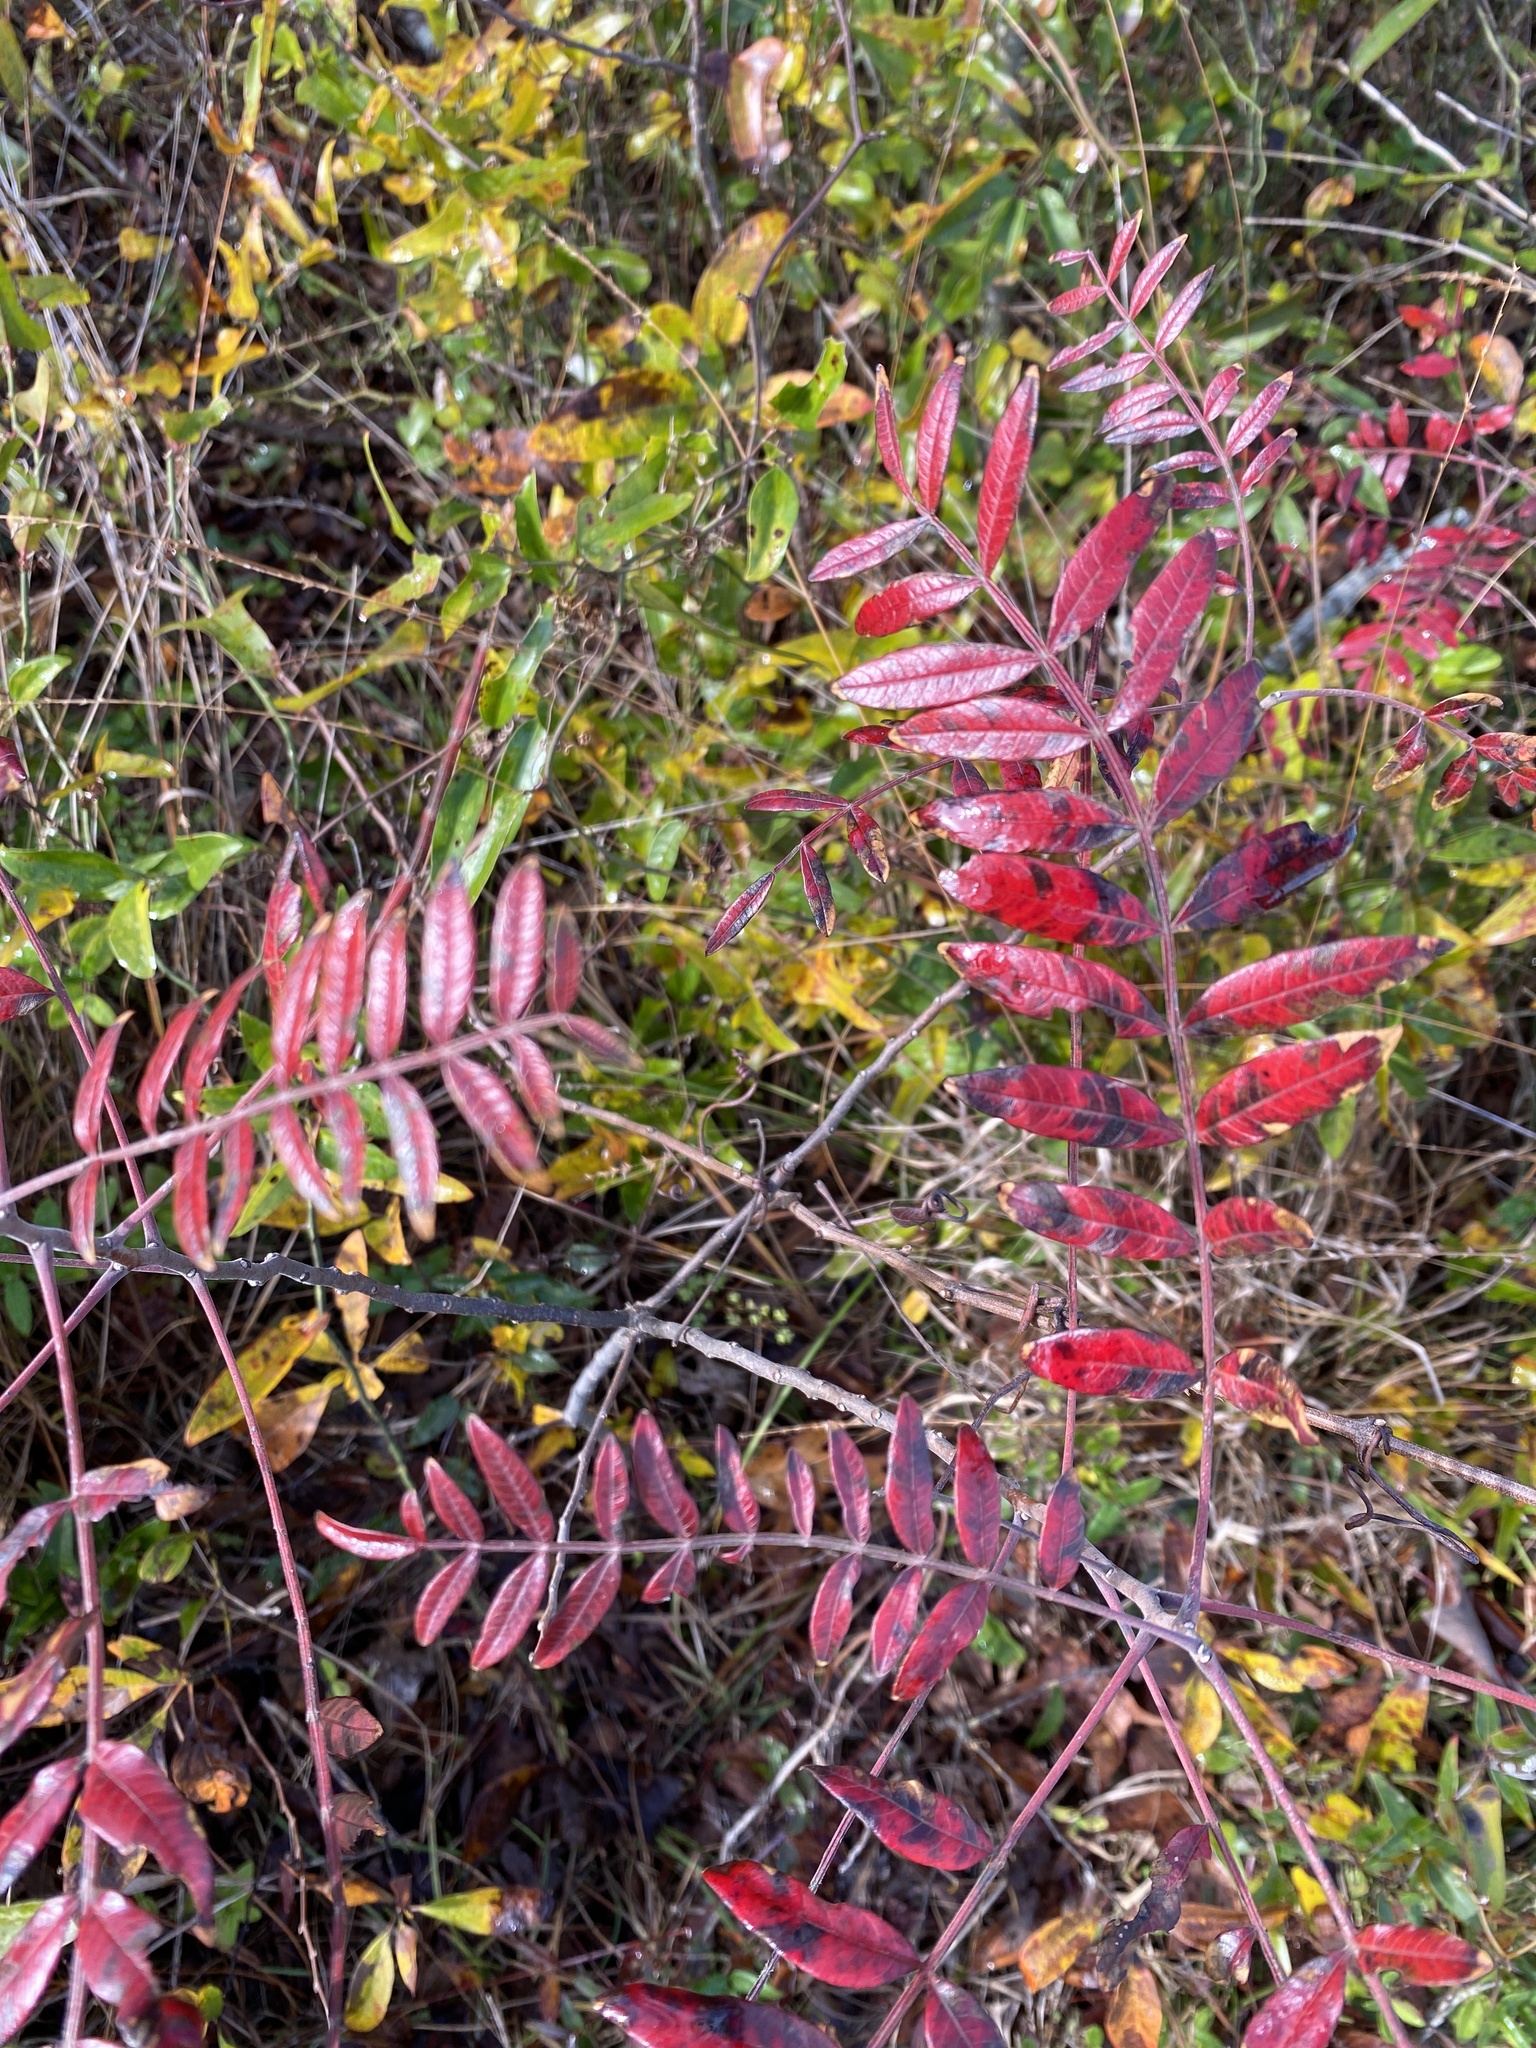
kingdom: Plantae
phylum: Tracheophyta
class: Magnoliopsida
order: Sapindales
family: Anacardiaceae
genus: Rhus
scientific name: Rhus copallina
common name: Shining sumac
